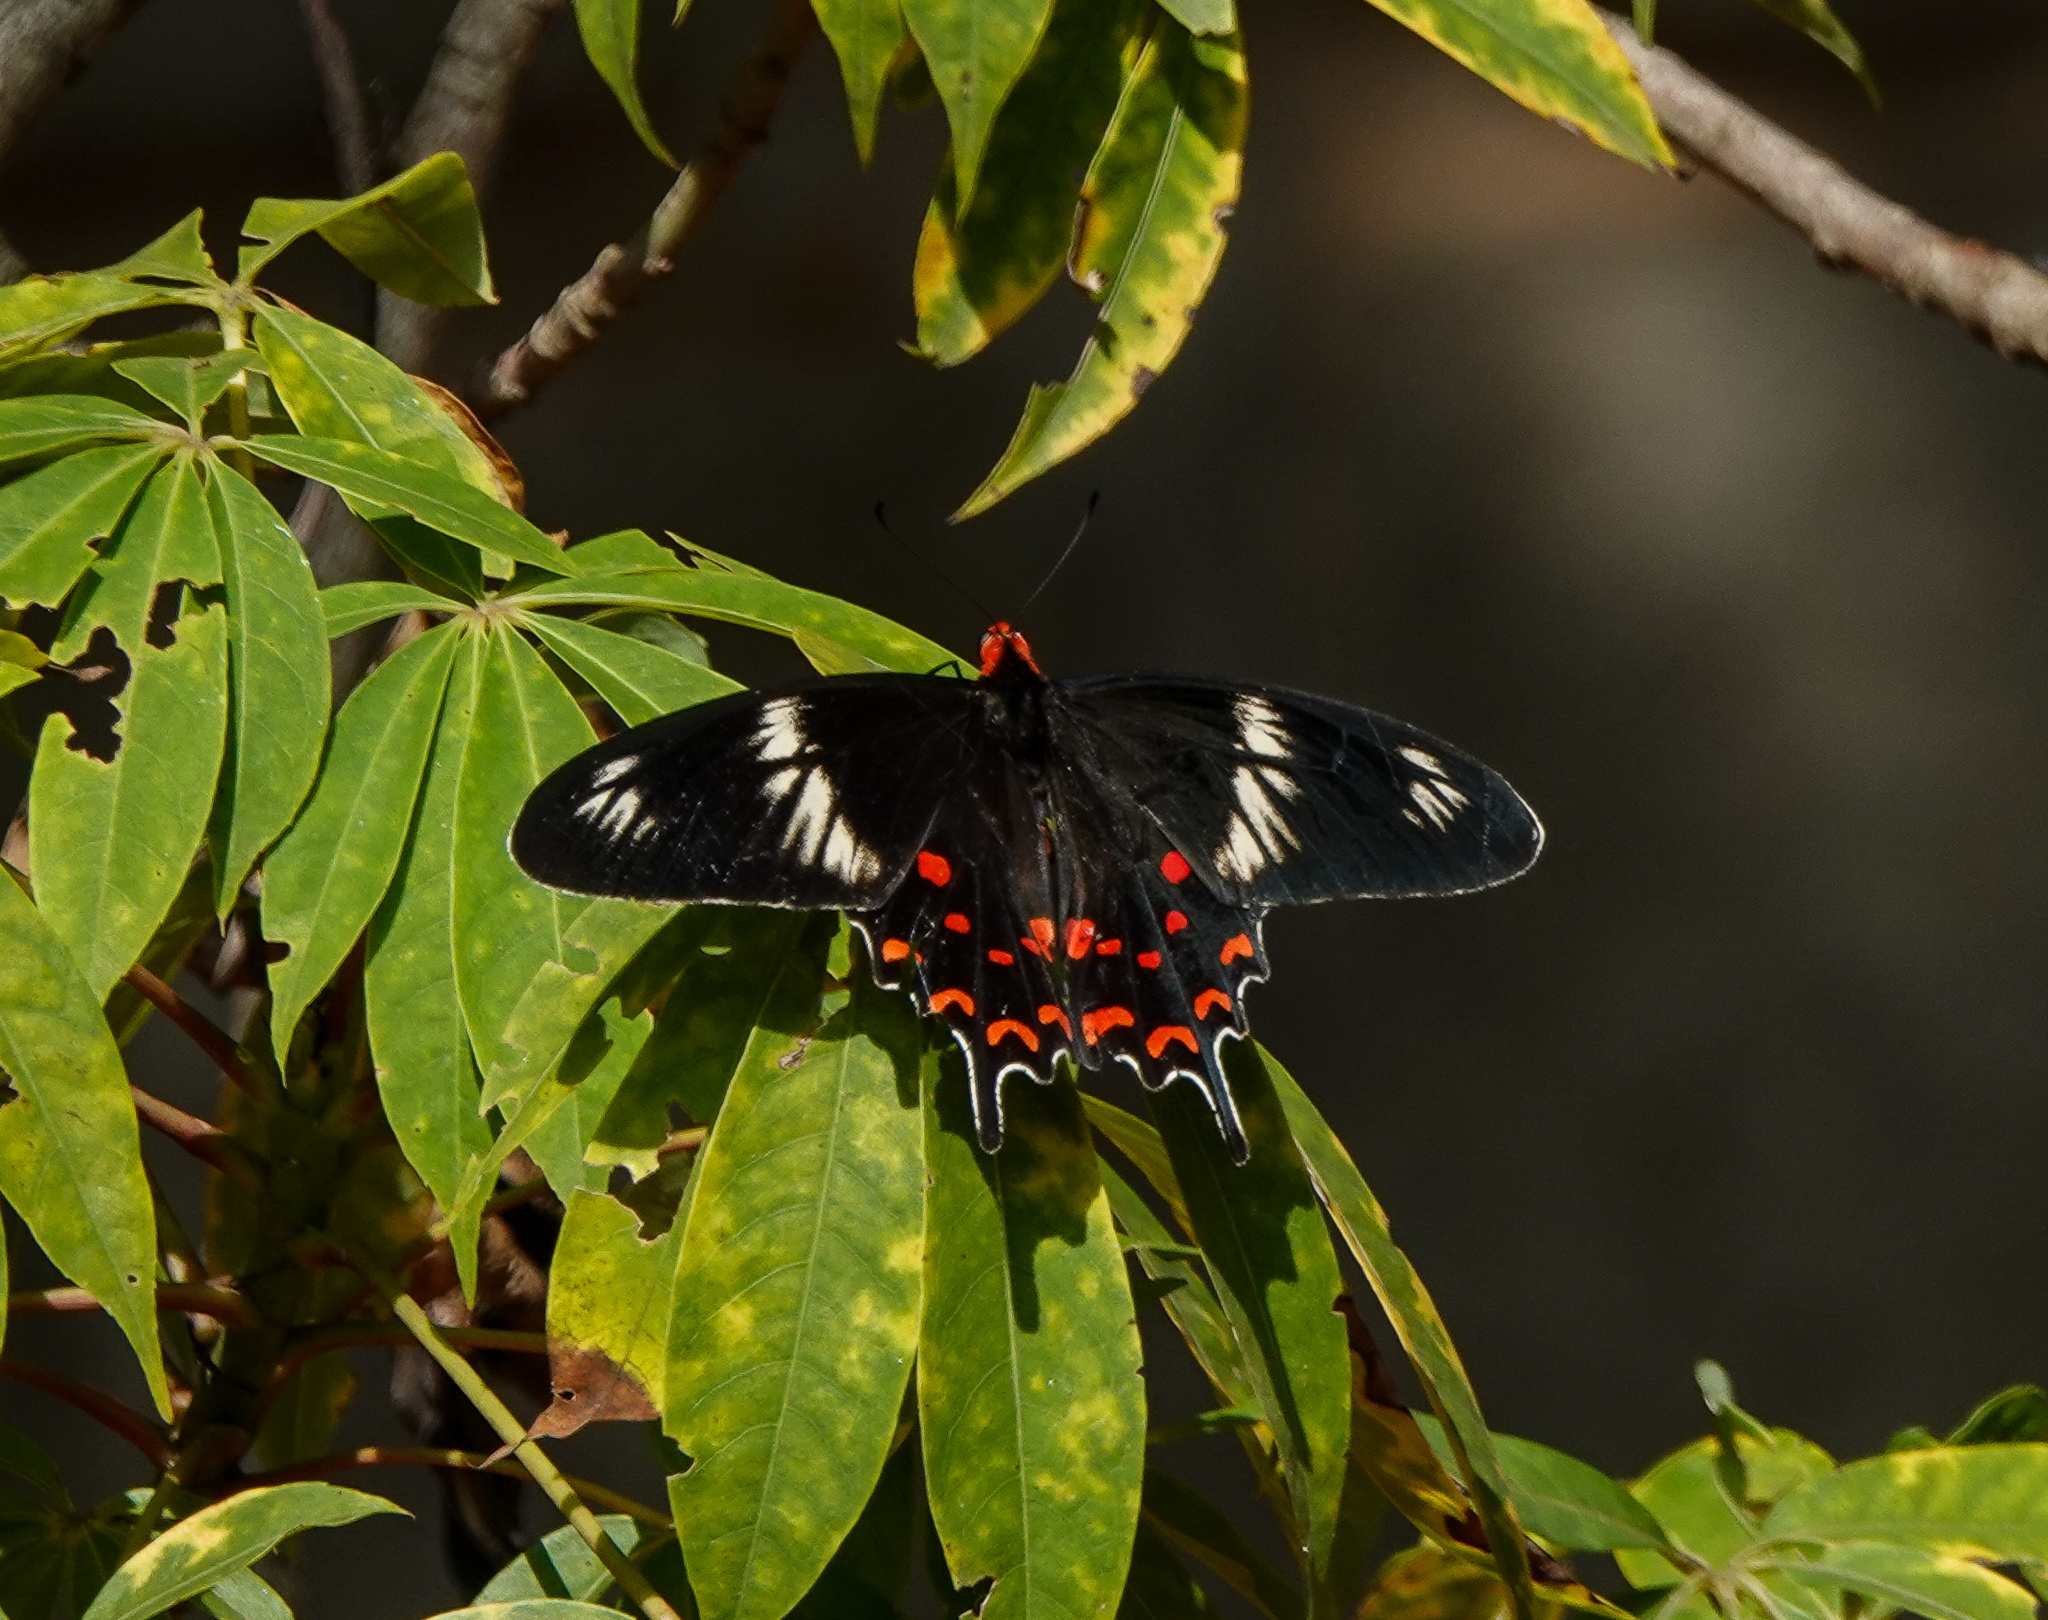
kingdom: Animalia
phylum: Arthropoda
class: Insecta
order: Lepidoptera
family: Papilionidae
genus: Pachliopta
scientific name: Pachliopta hector
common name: Crimson rose
